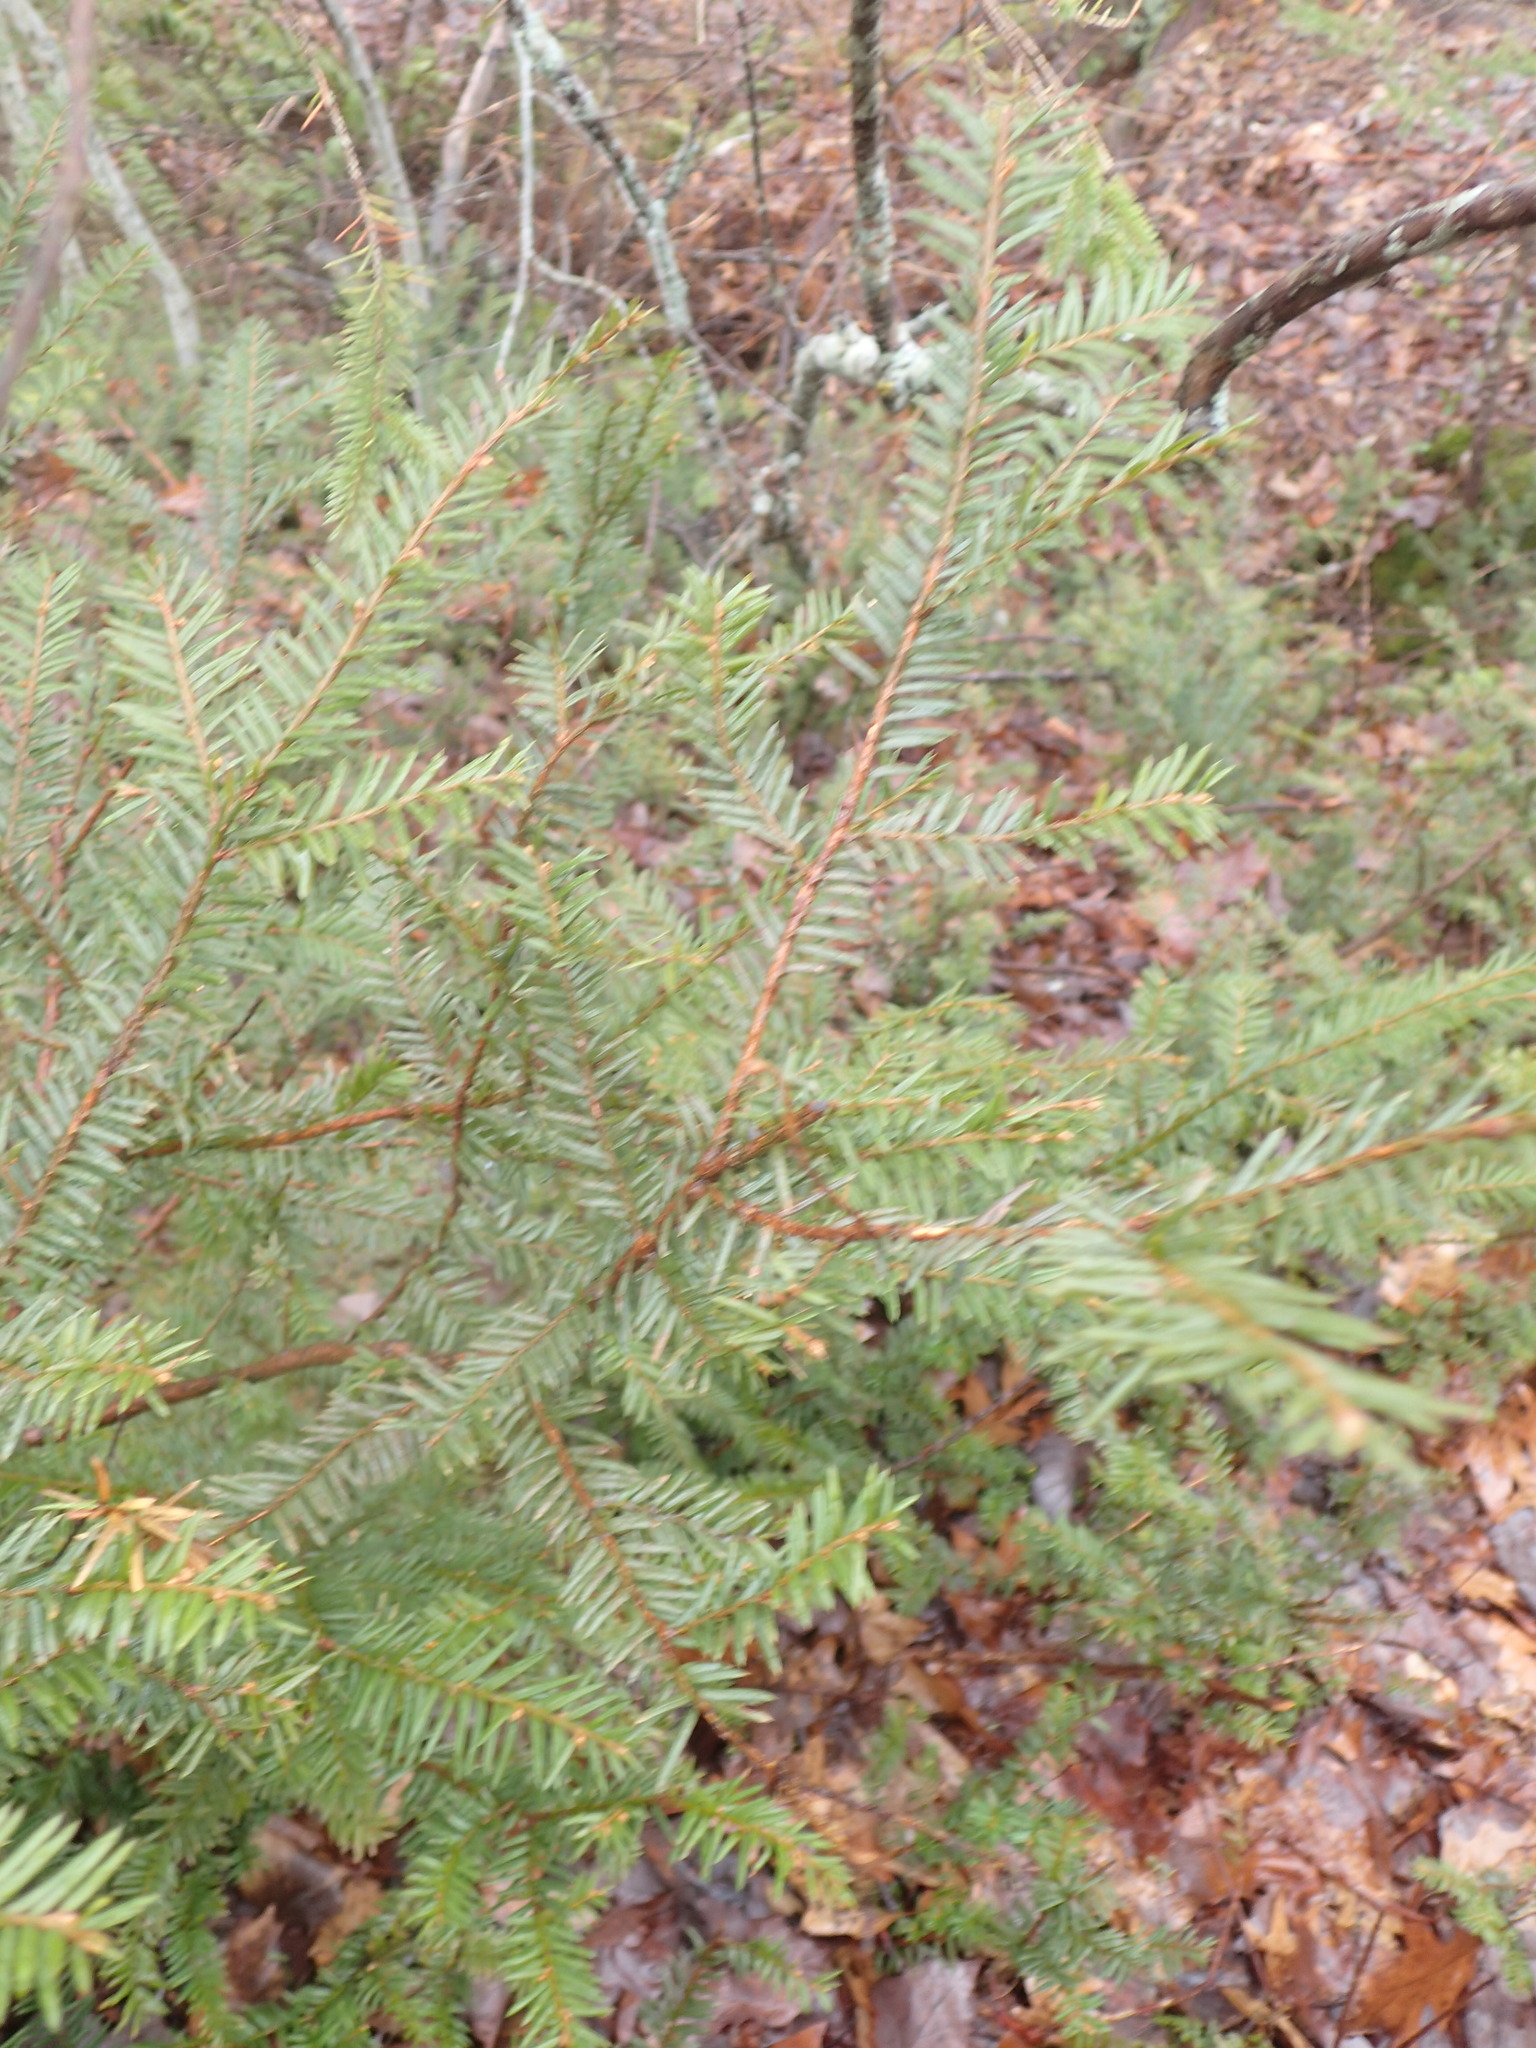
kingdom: Plantae
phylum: Tracheophyta
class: Pinopsida
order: Pinales
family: Taxaceae
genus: Taxus
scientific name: Taxus canadensis
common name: American yew
